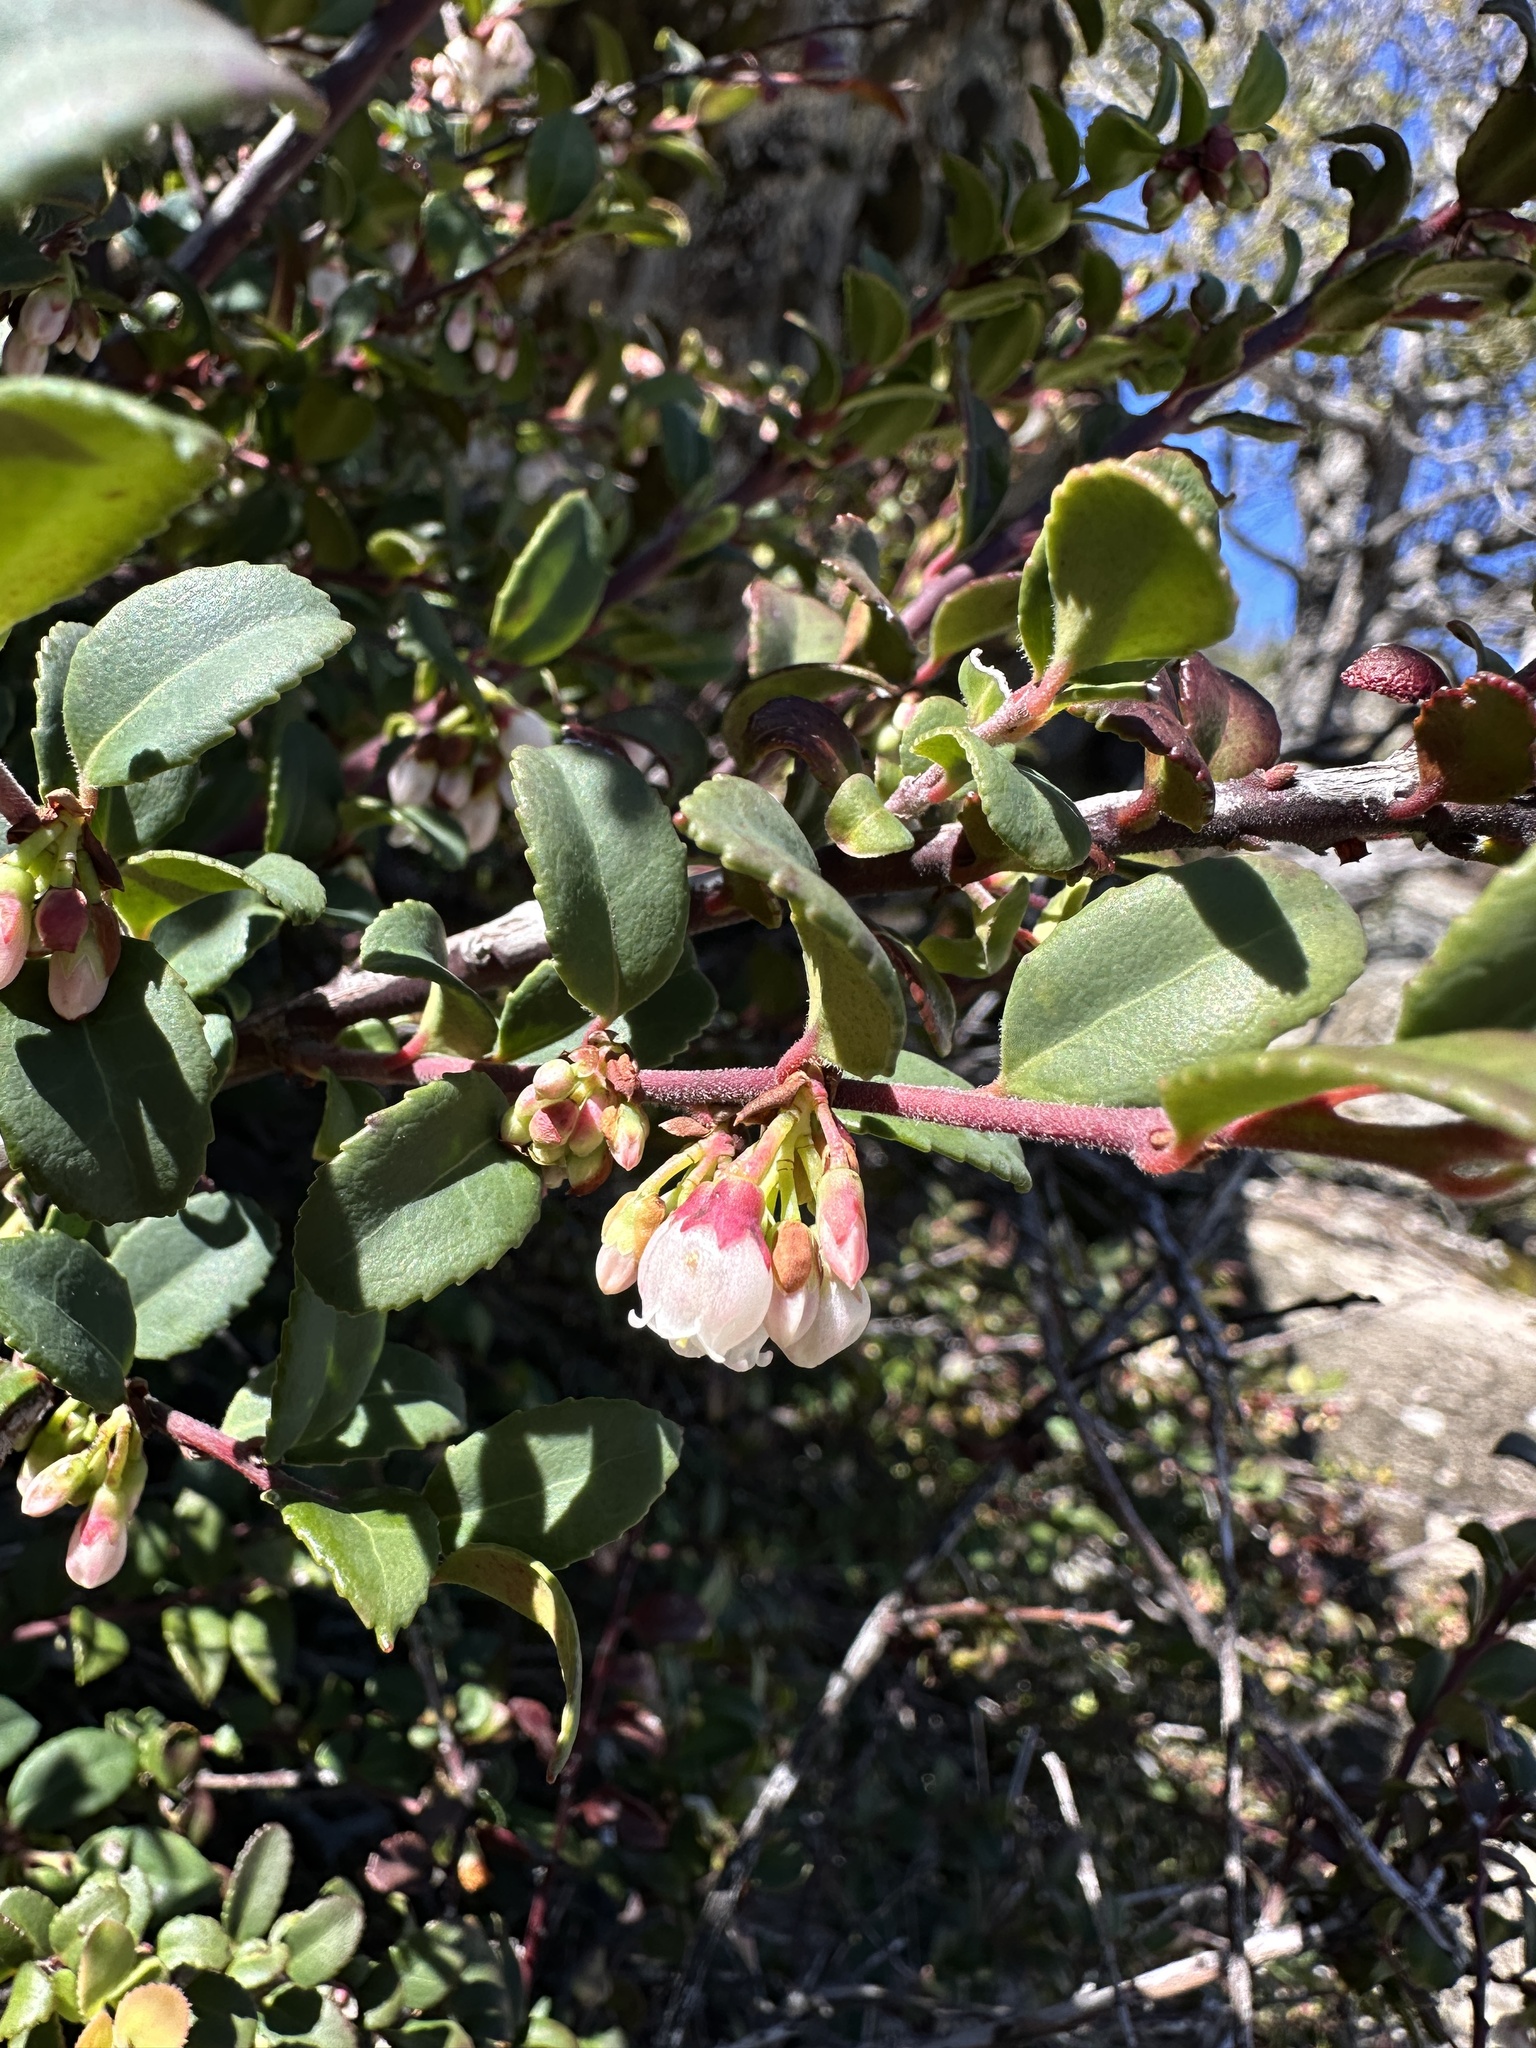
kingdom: Plantae
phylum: Tracheophyta
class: Magnoliopsida
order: Ericales
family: Ericaceae
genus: Vaccinium
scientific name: Vaccinium ovatum
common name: California-huckleberry
